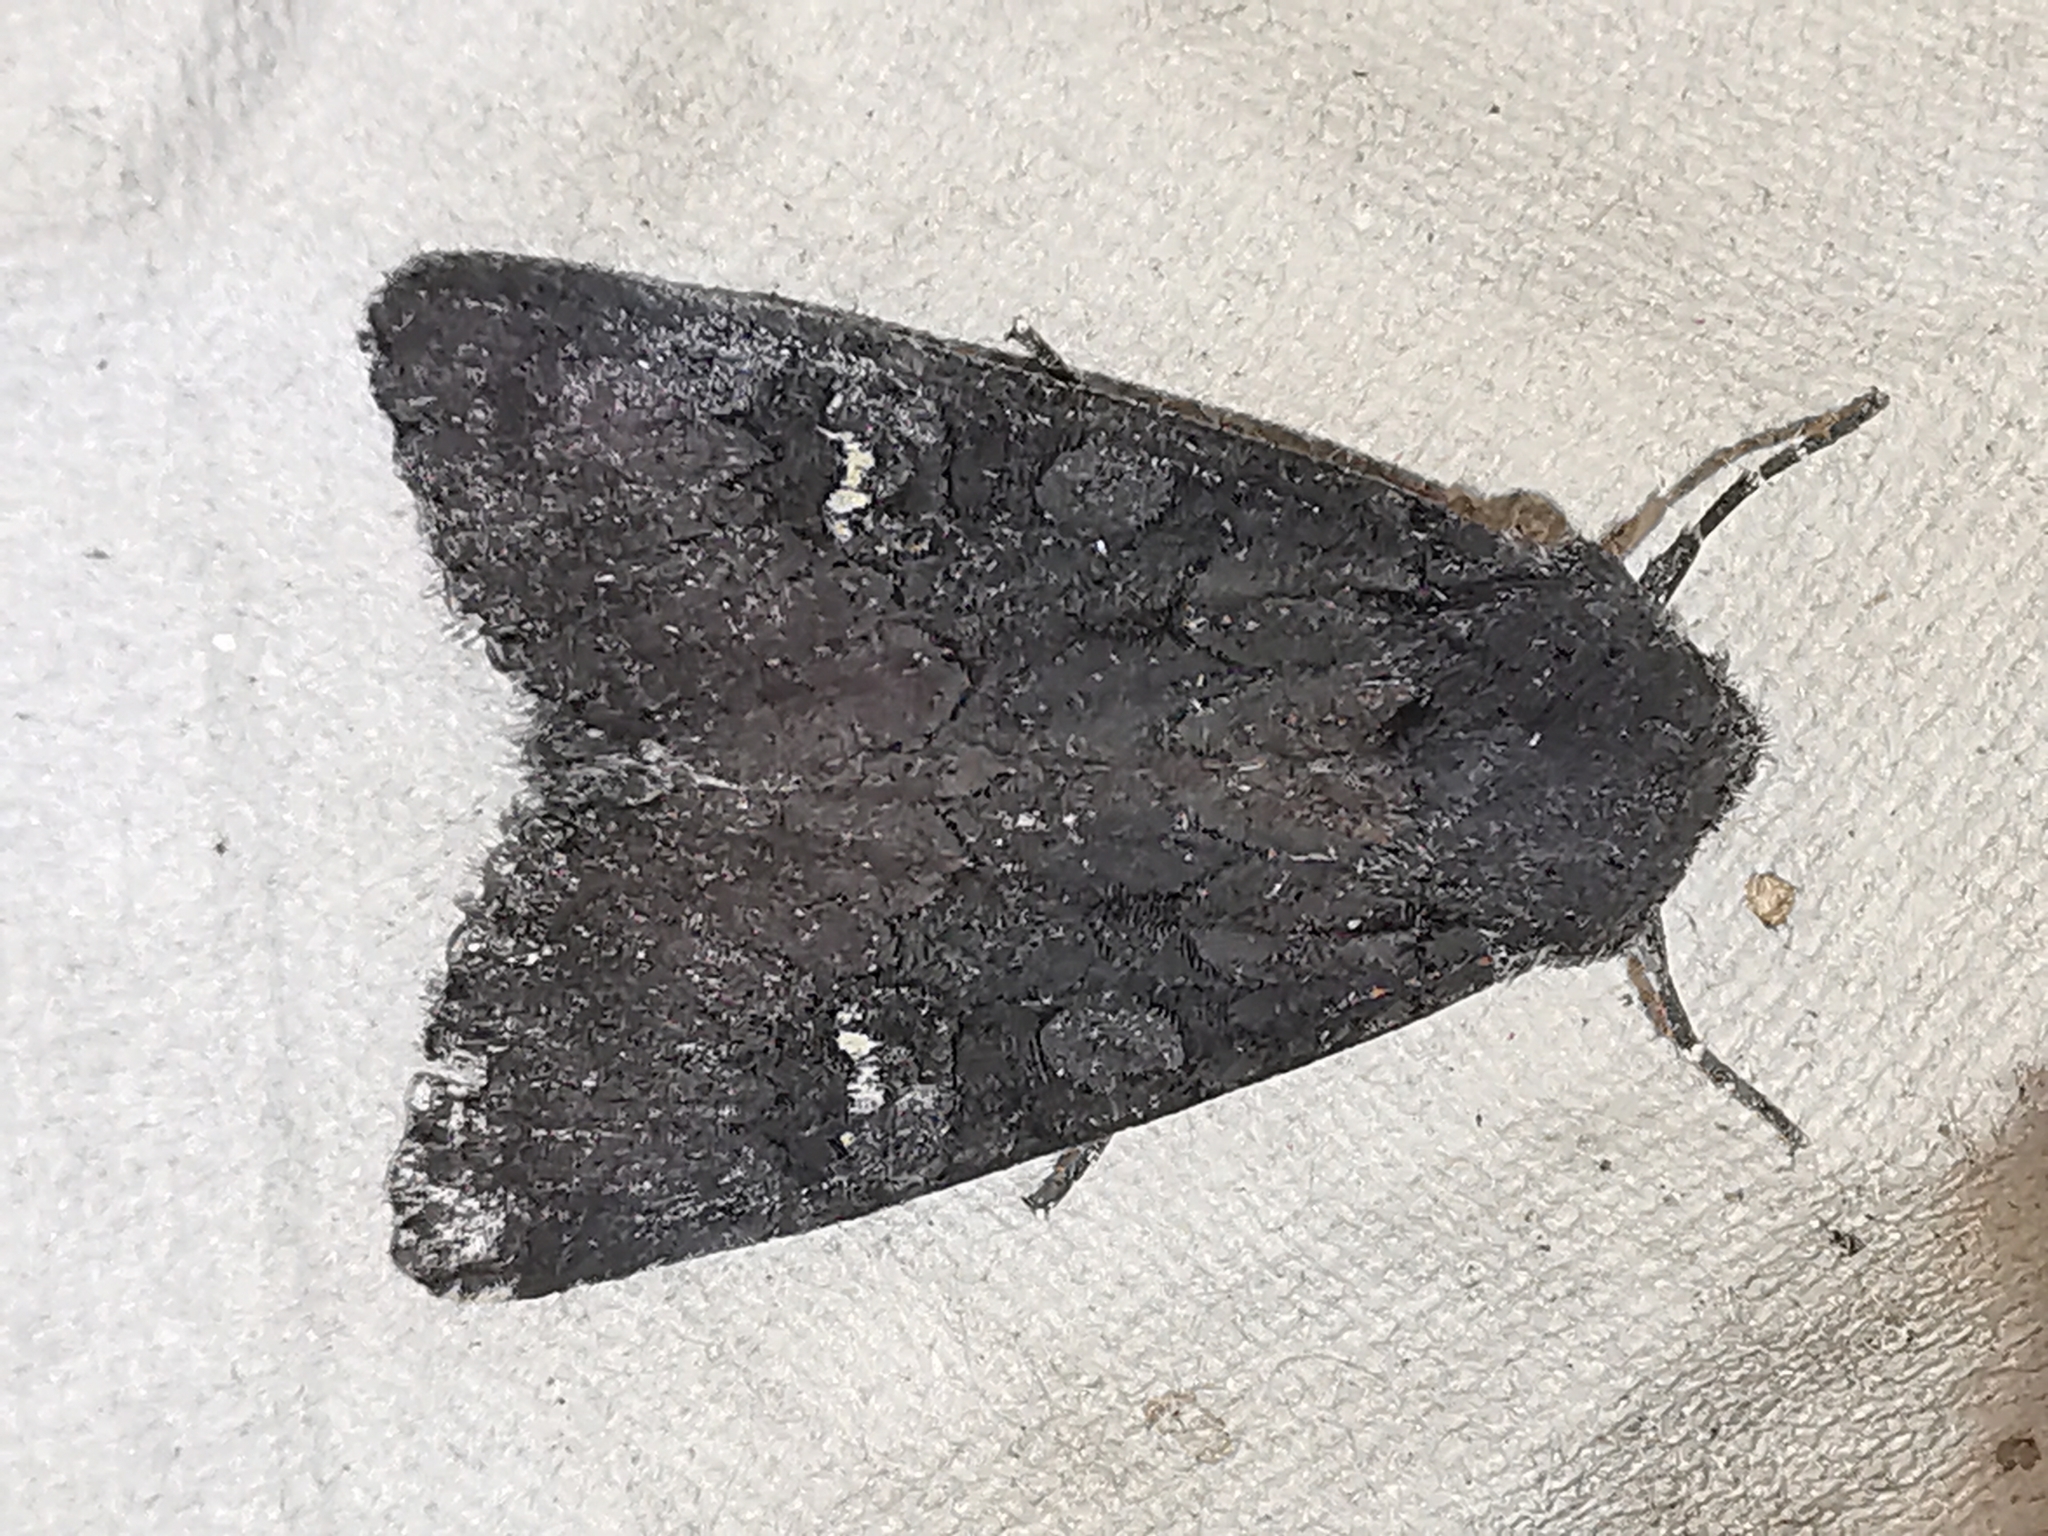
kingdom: Animalia
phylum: Arthropoda
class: Insecta
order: Lepidoptera
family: Noctuidae
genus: Aporophyla
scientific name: Aporophyla nigra
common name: Black rustic
